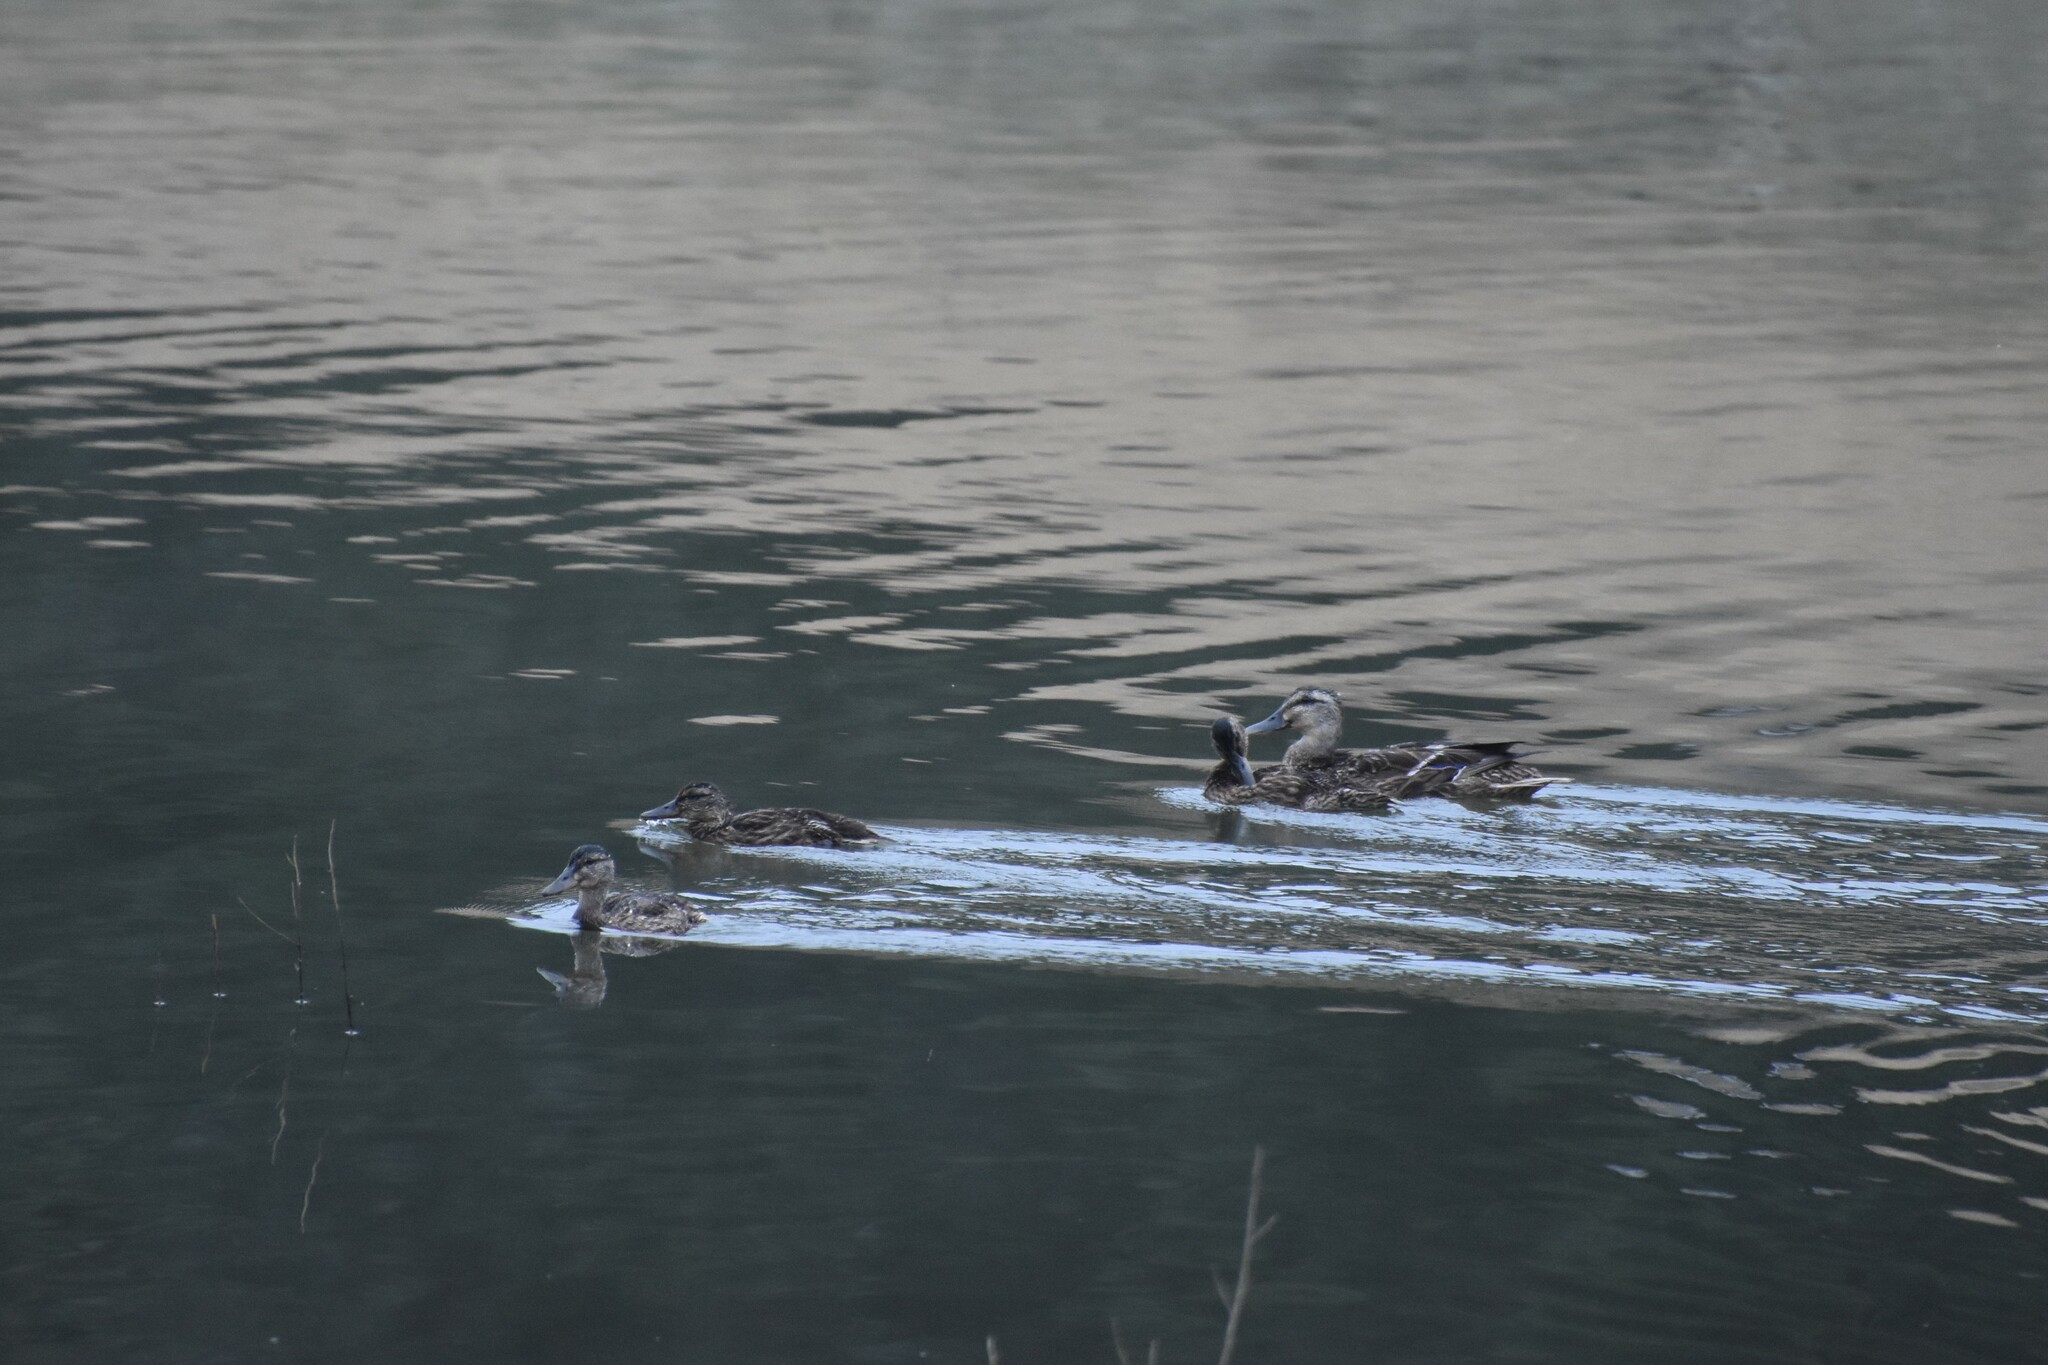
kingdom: Animalia
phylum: Chordata
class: Aves
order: Anseriformes
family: Anatidae
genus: Anas
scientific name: Anas platyrhynchos
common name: Mallard
